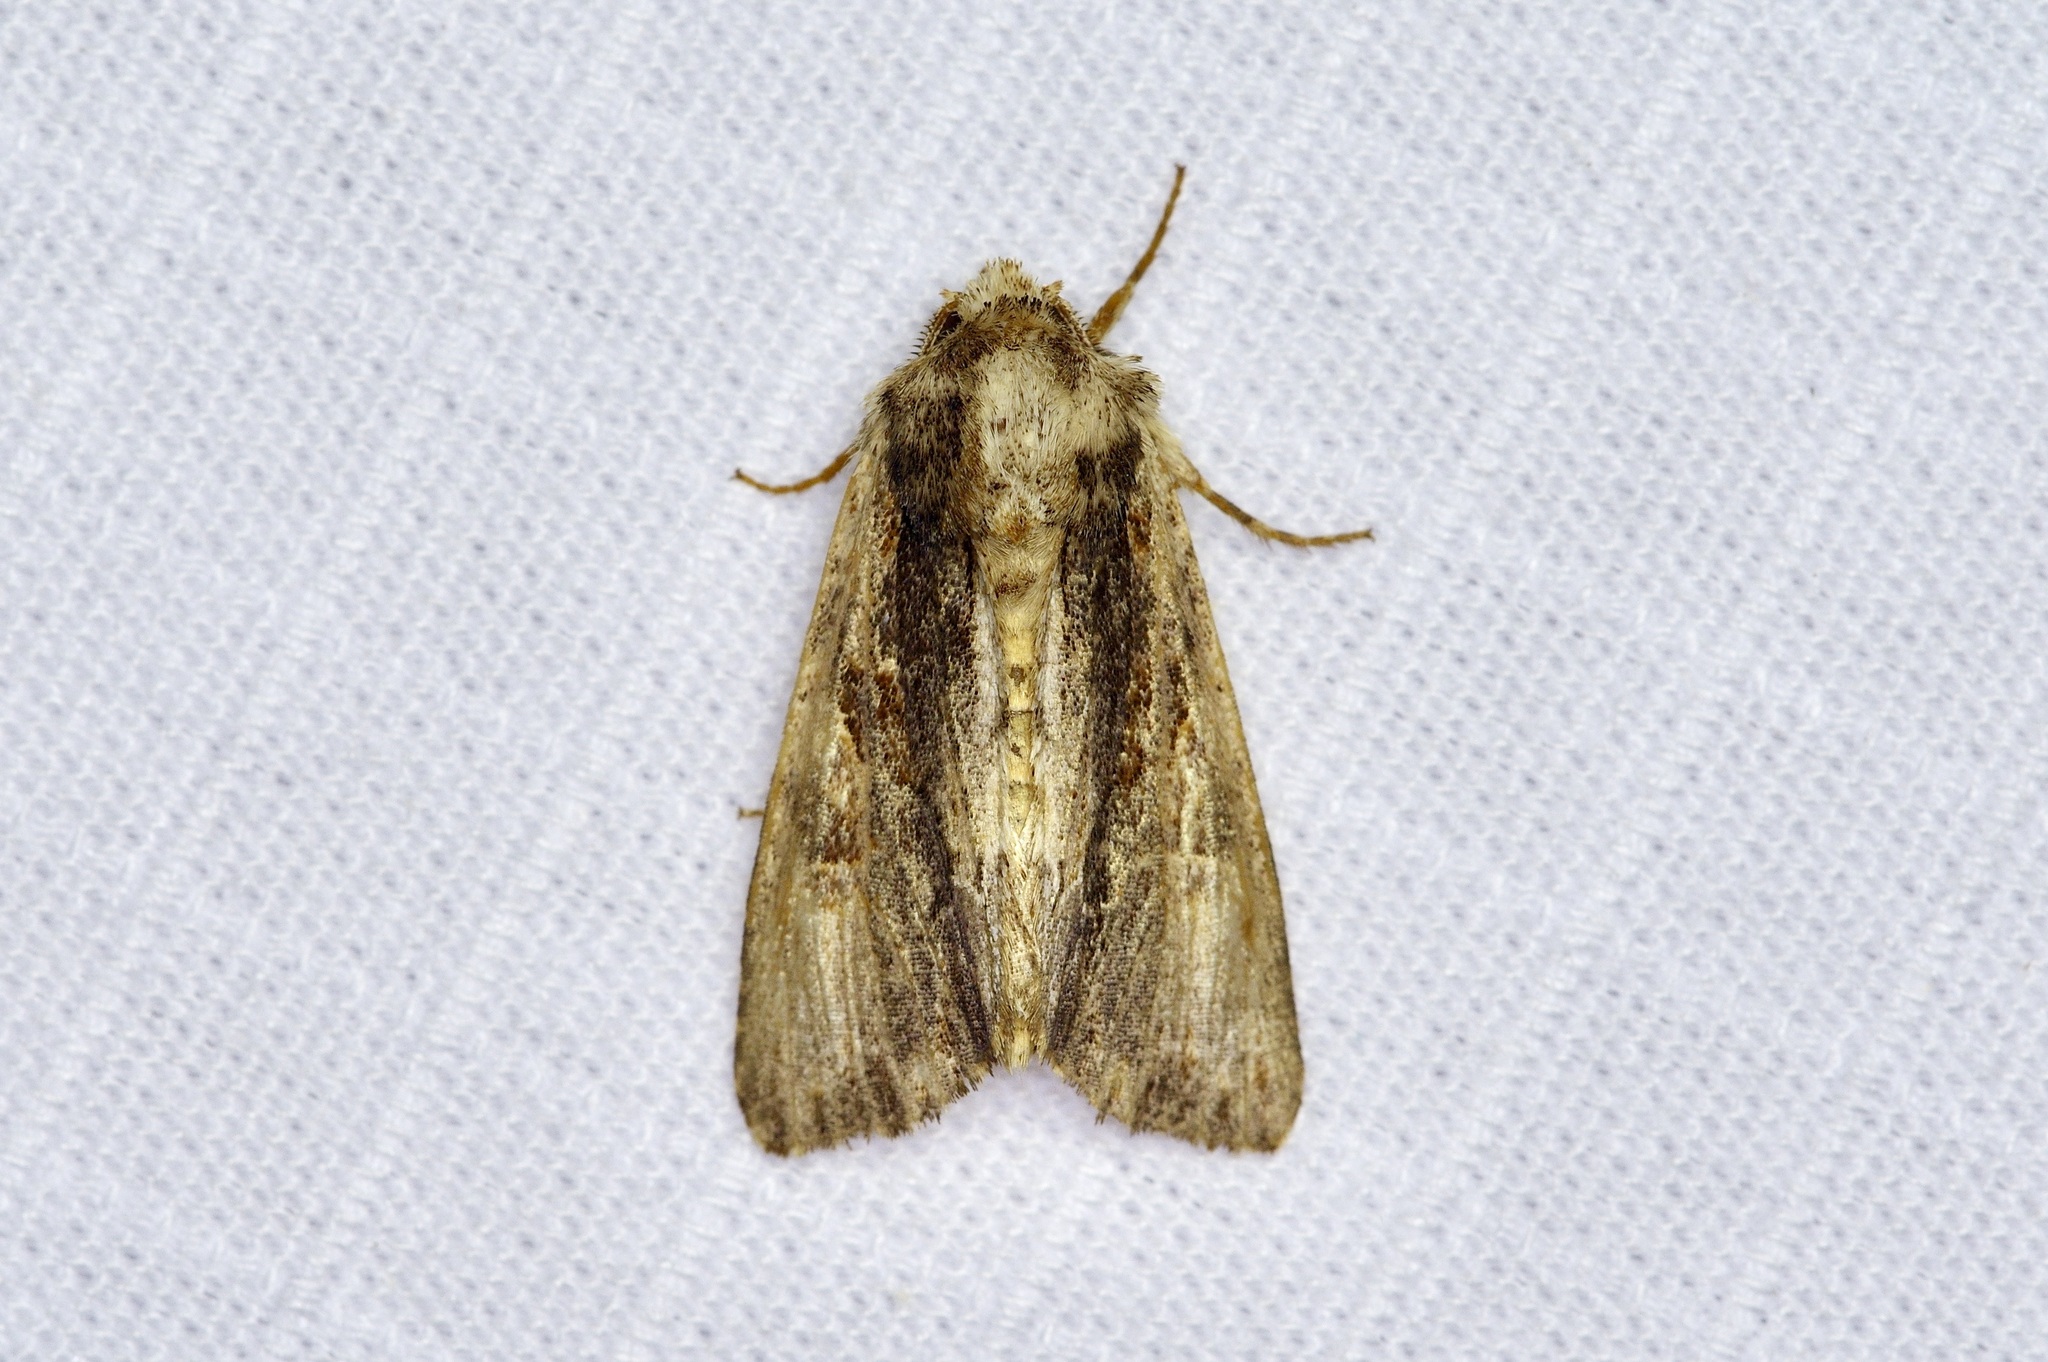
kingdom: Animalia
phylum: Arthropoda
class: Insecta
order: Lepidoptera
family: Noctuidae
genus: Achatia
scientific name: Achatia mucens
